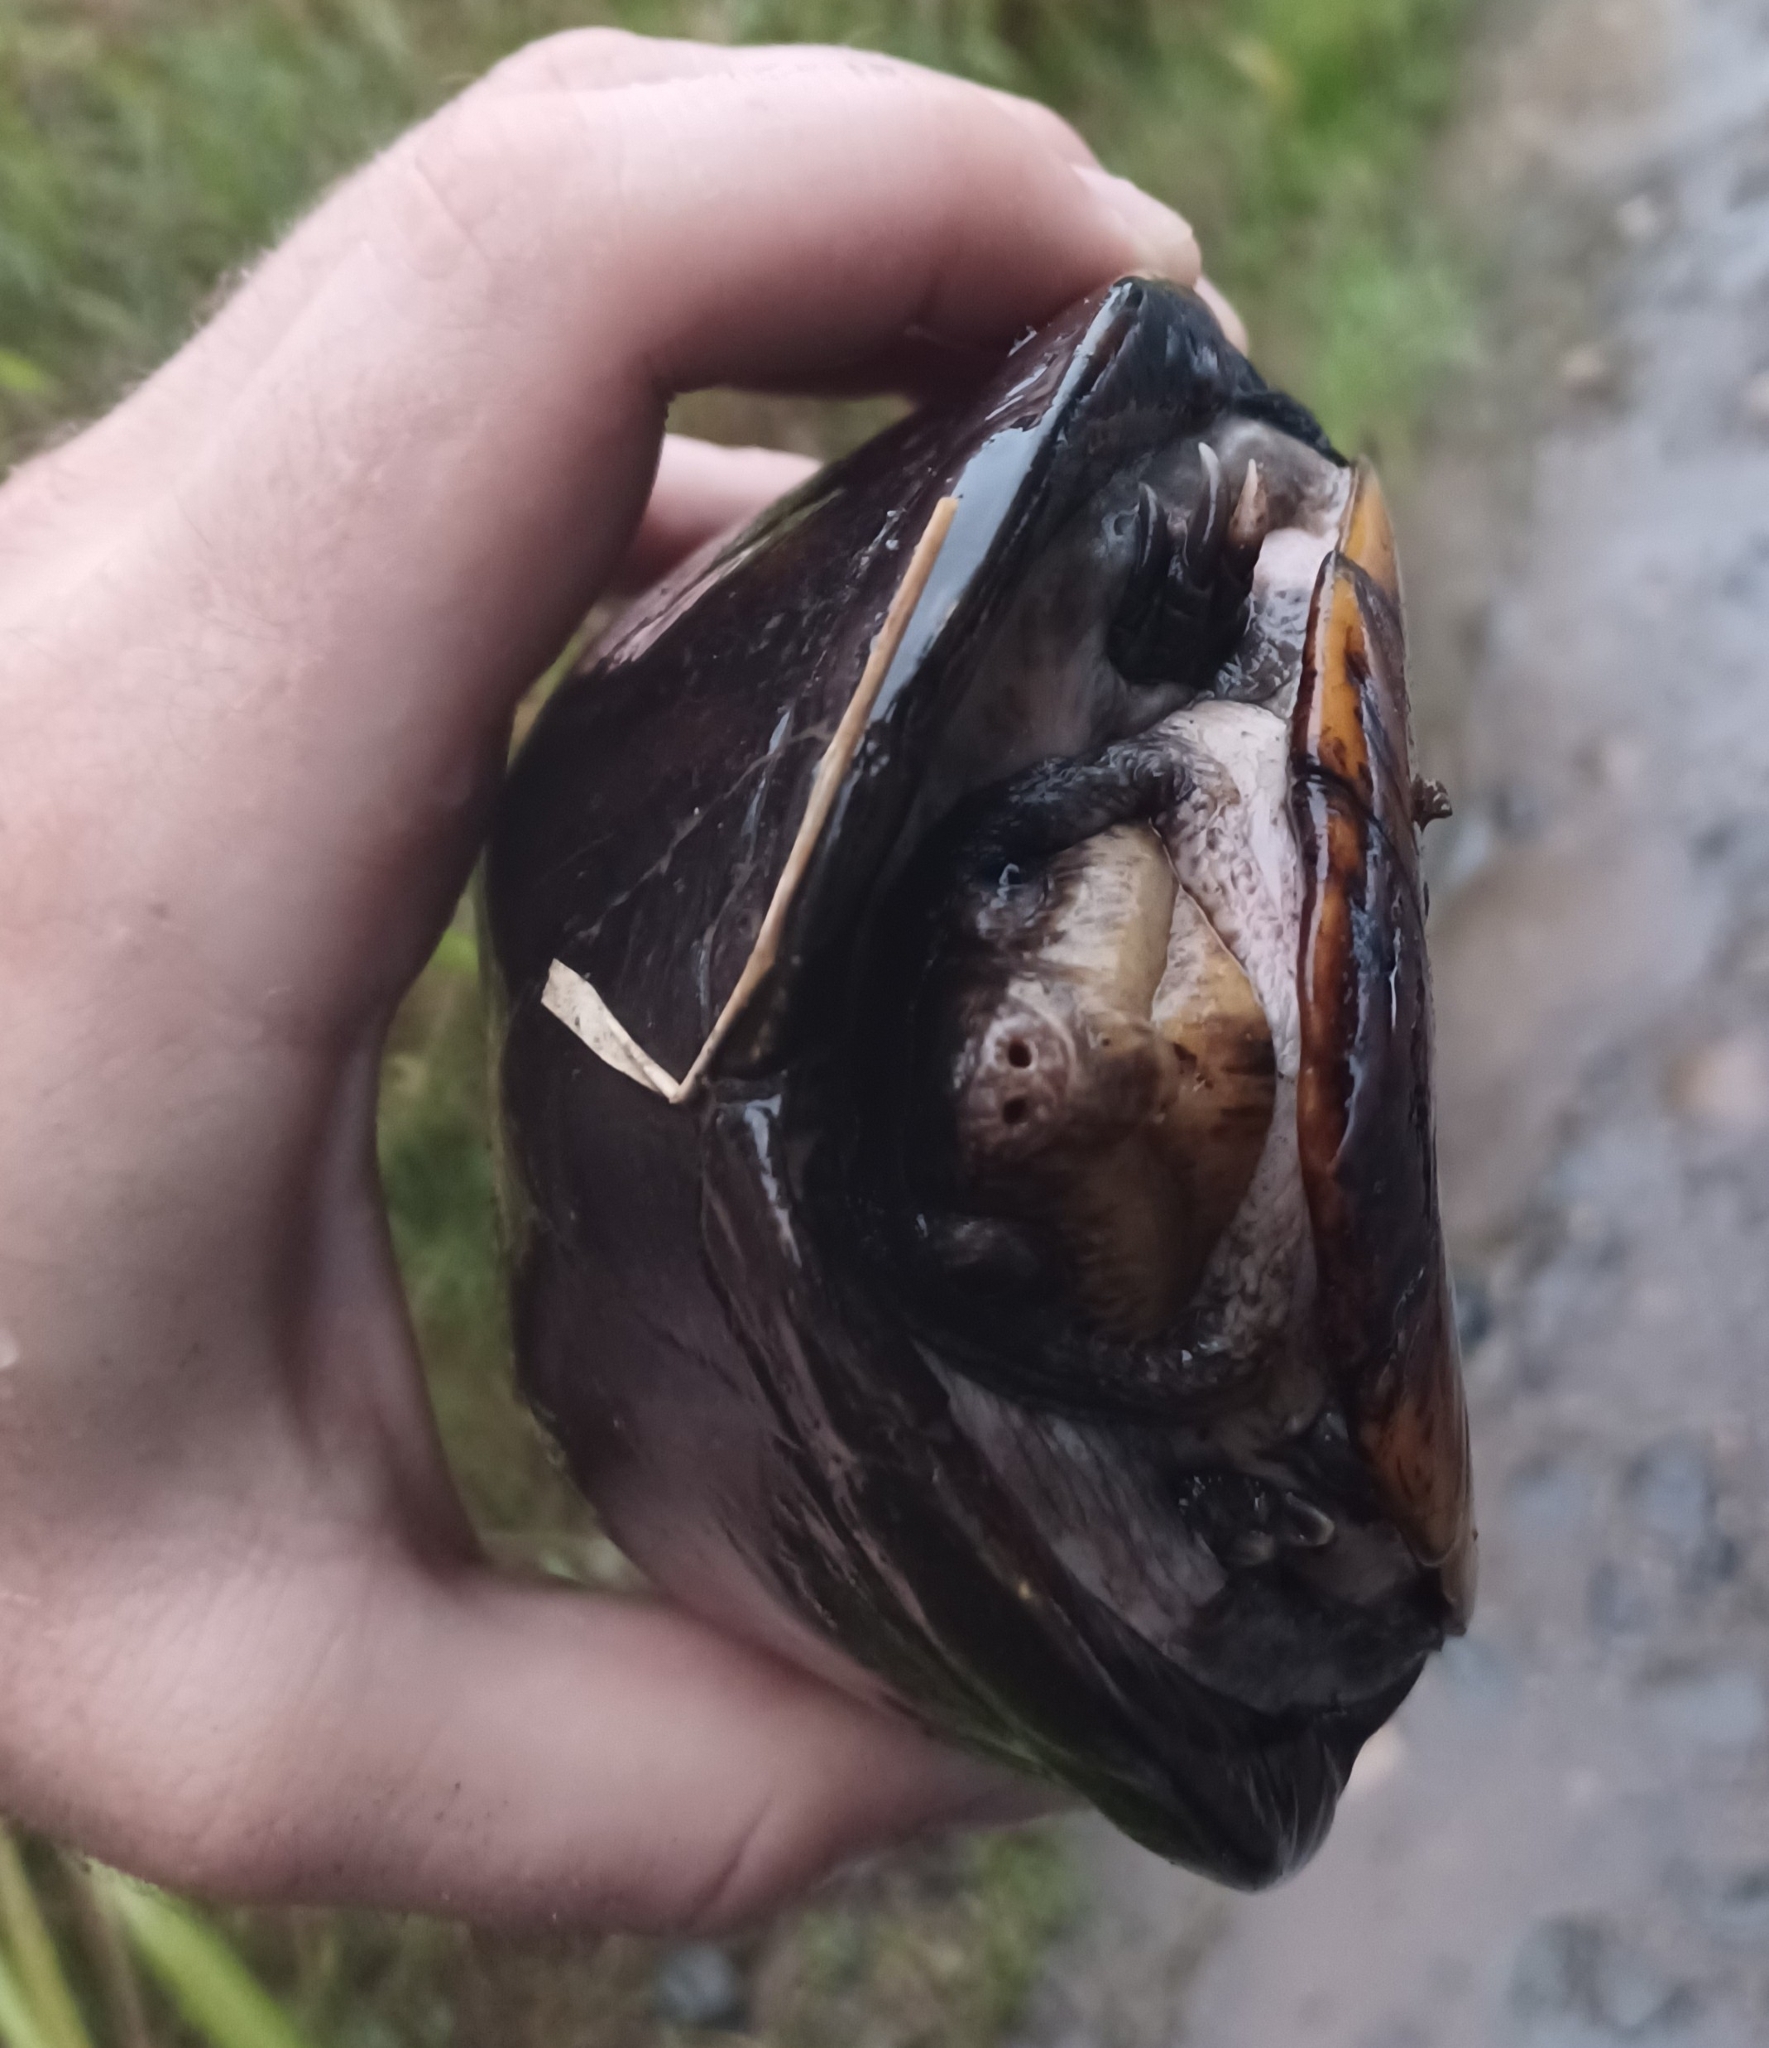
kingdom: Animalia
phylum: Chordata
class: Testudines
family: Kinosternidae
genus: Kinosternon
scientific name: Kinosternon scorpioides
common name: Scorpion mud turtle
